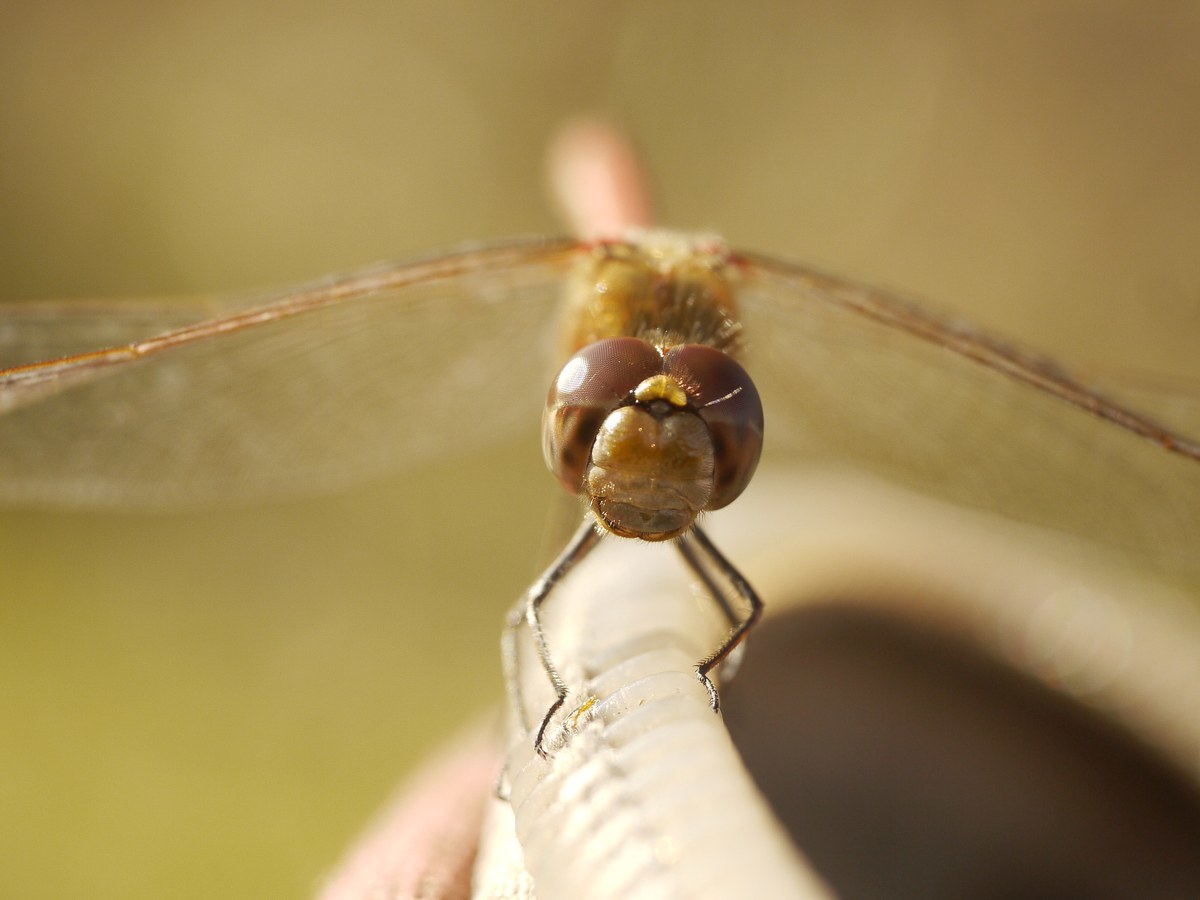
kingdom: Animalia
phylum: Arthropoda
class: Insecta
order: Odonata
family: Libellulidae
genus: Sympetrum
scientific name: Sympetrum
